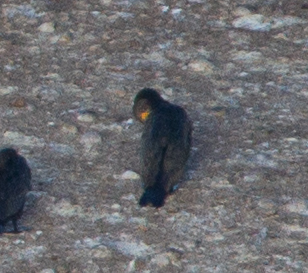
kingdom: Animalia
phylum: Chordata
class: Aves
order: Suliformes
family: Phalacrocoracidae
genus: Phalacrocorax
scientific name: Phalacrocorax auritus
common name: Double-crested cormorant
